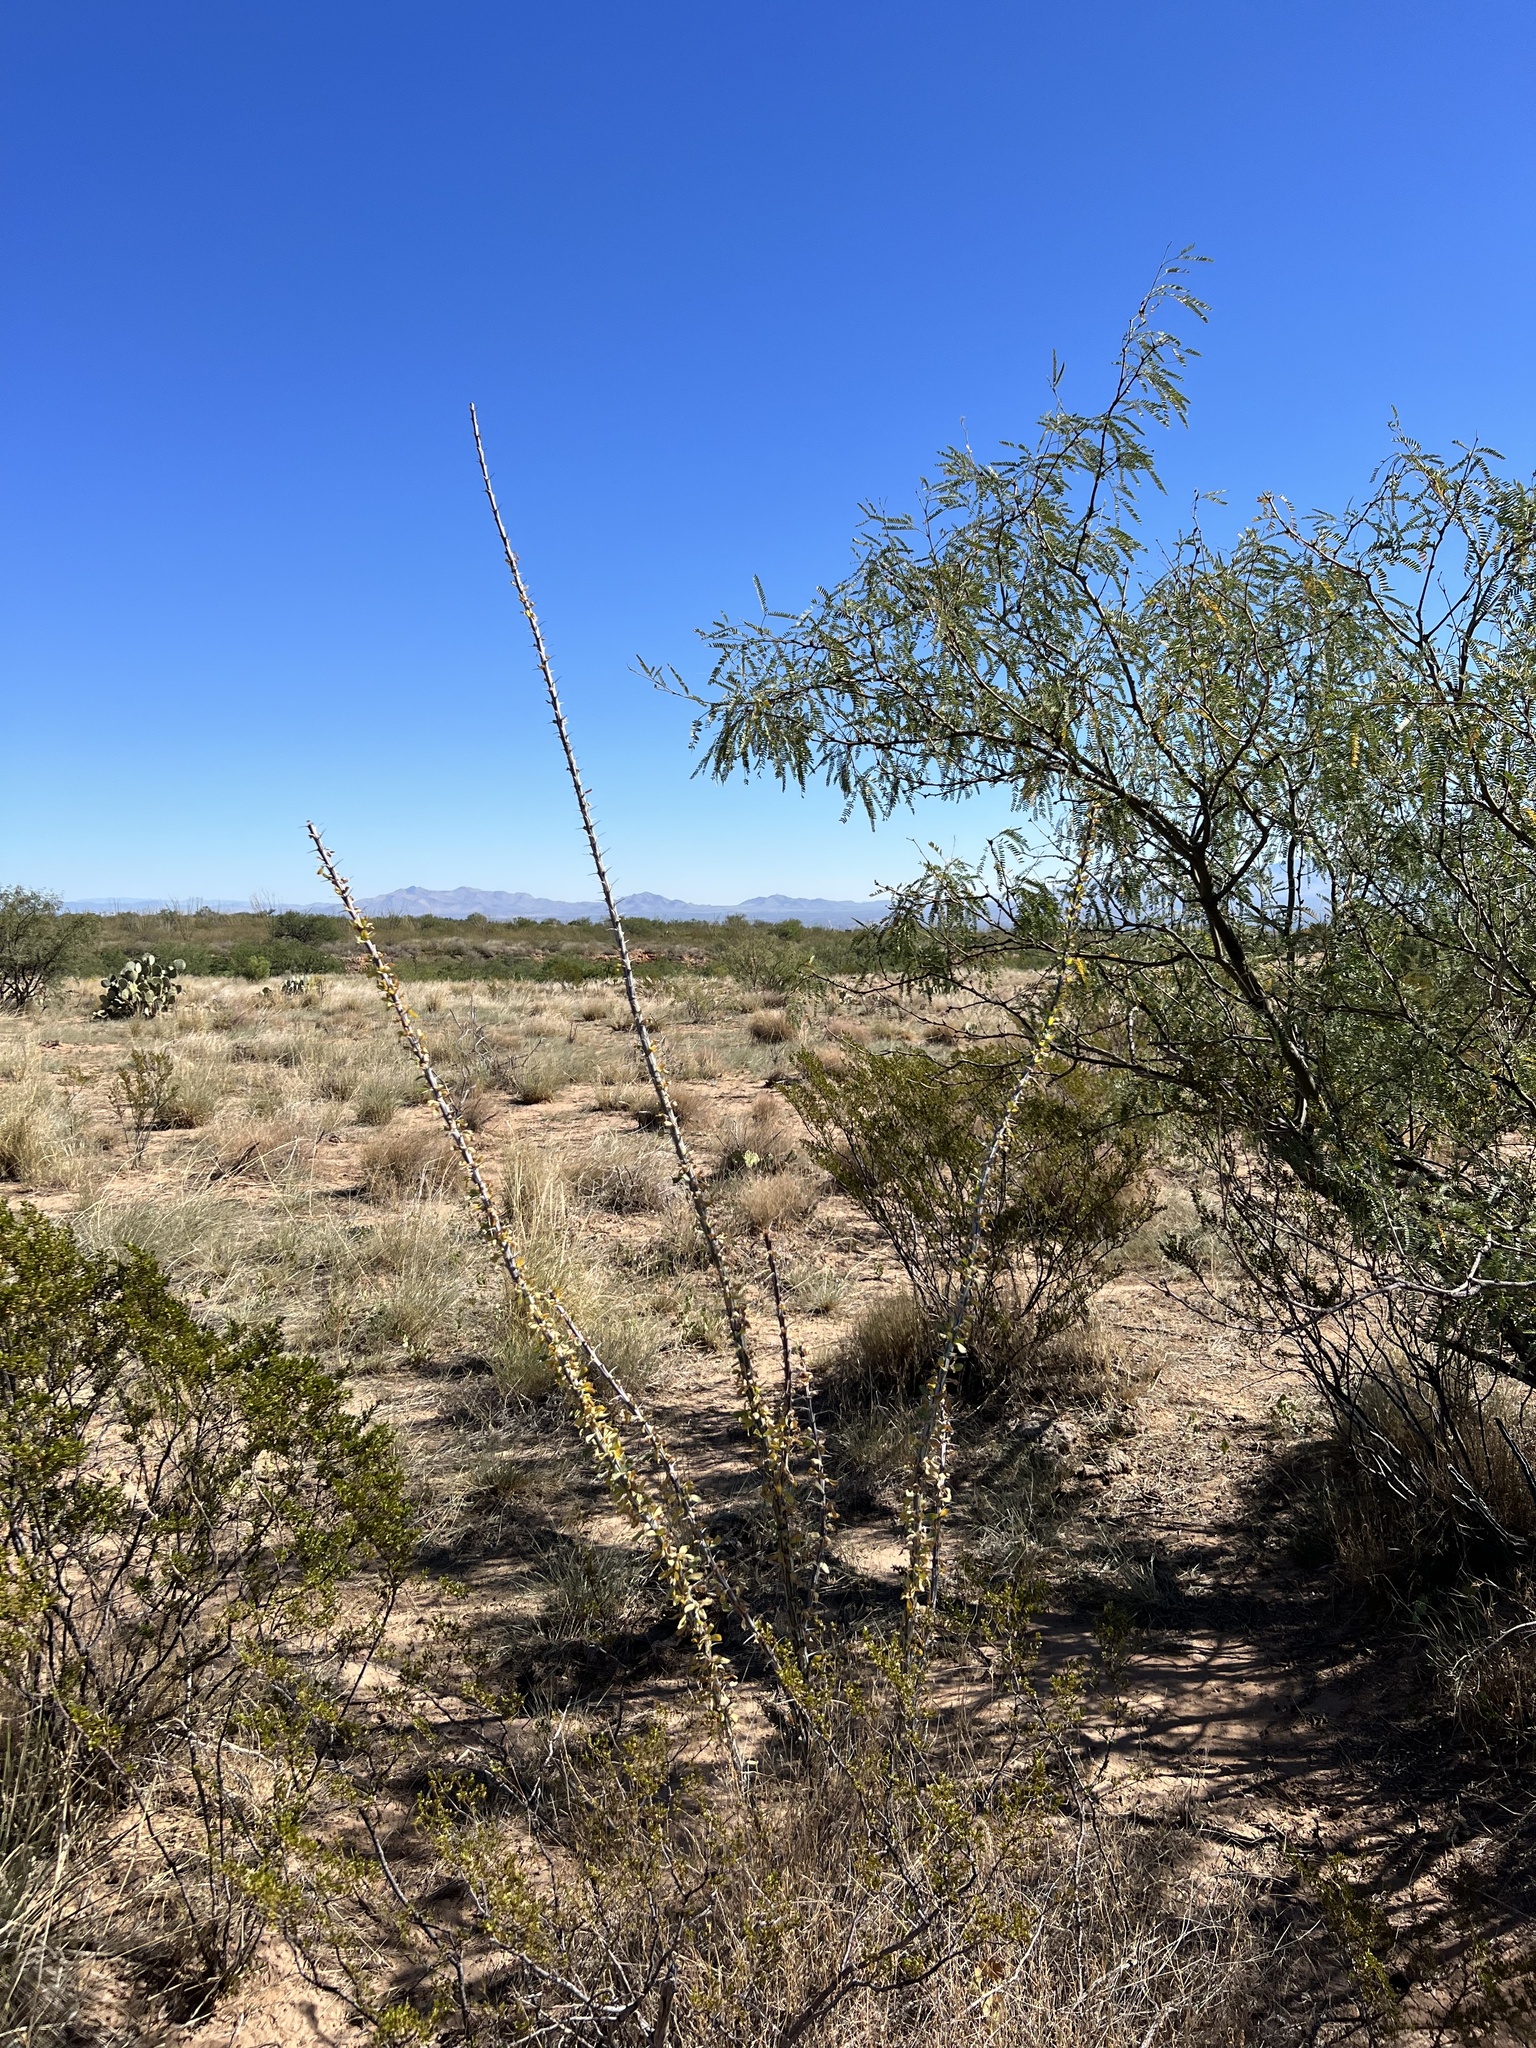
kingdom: Plantae
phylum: Tracheophyta
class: Magnoliopsida
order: Ericales
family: Fouquieriaceae
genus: Fouquieria
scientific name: Fouquieria splendens
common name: Vine-cactus
